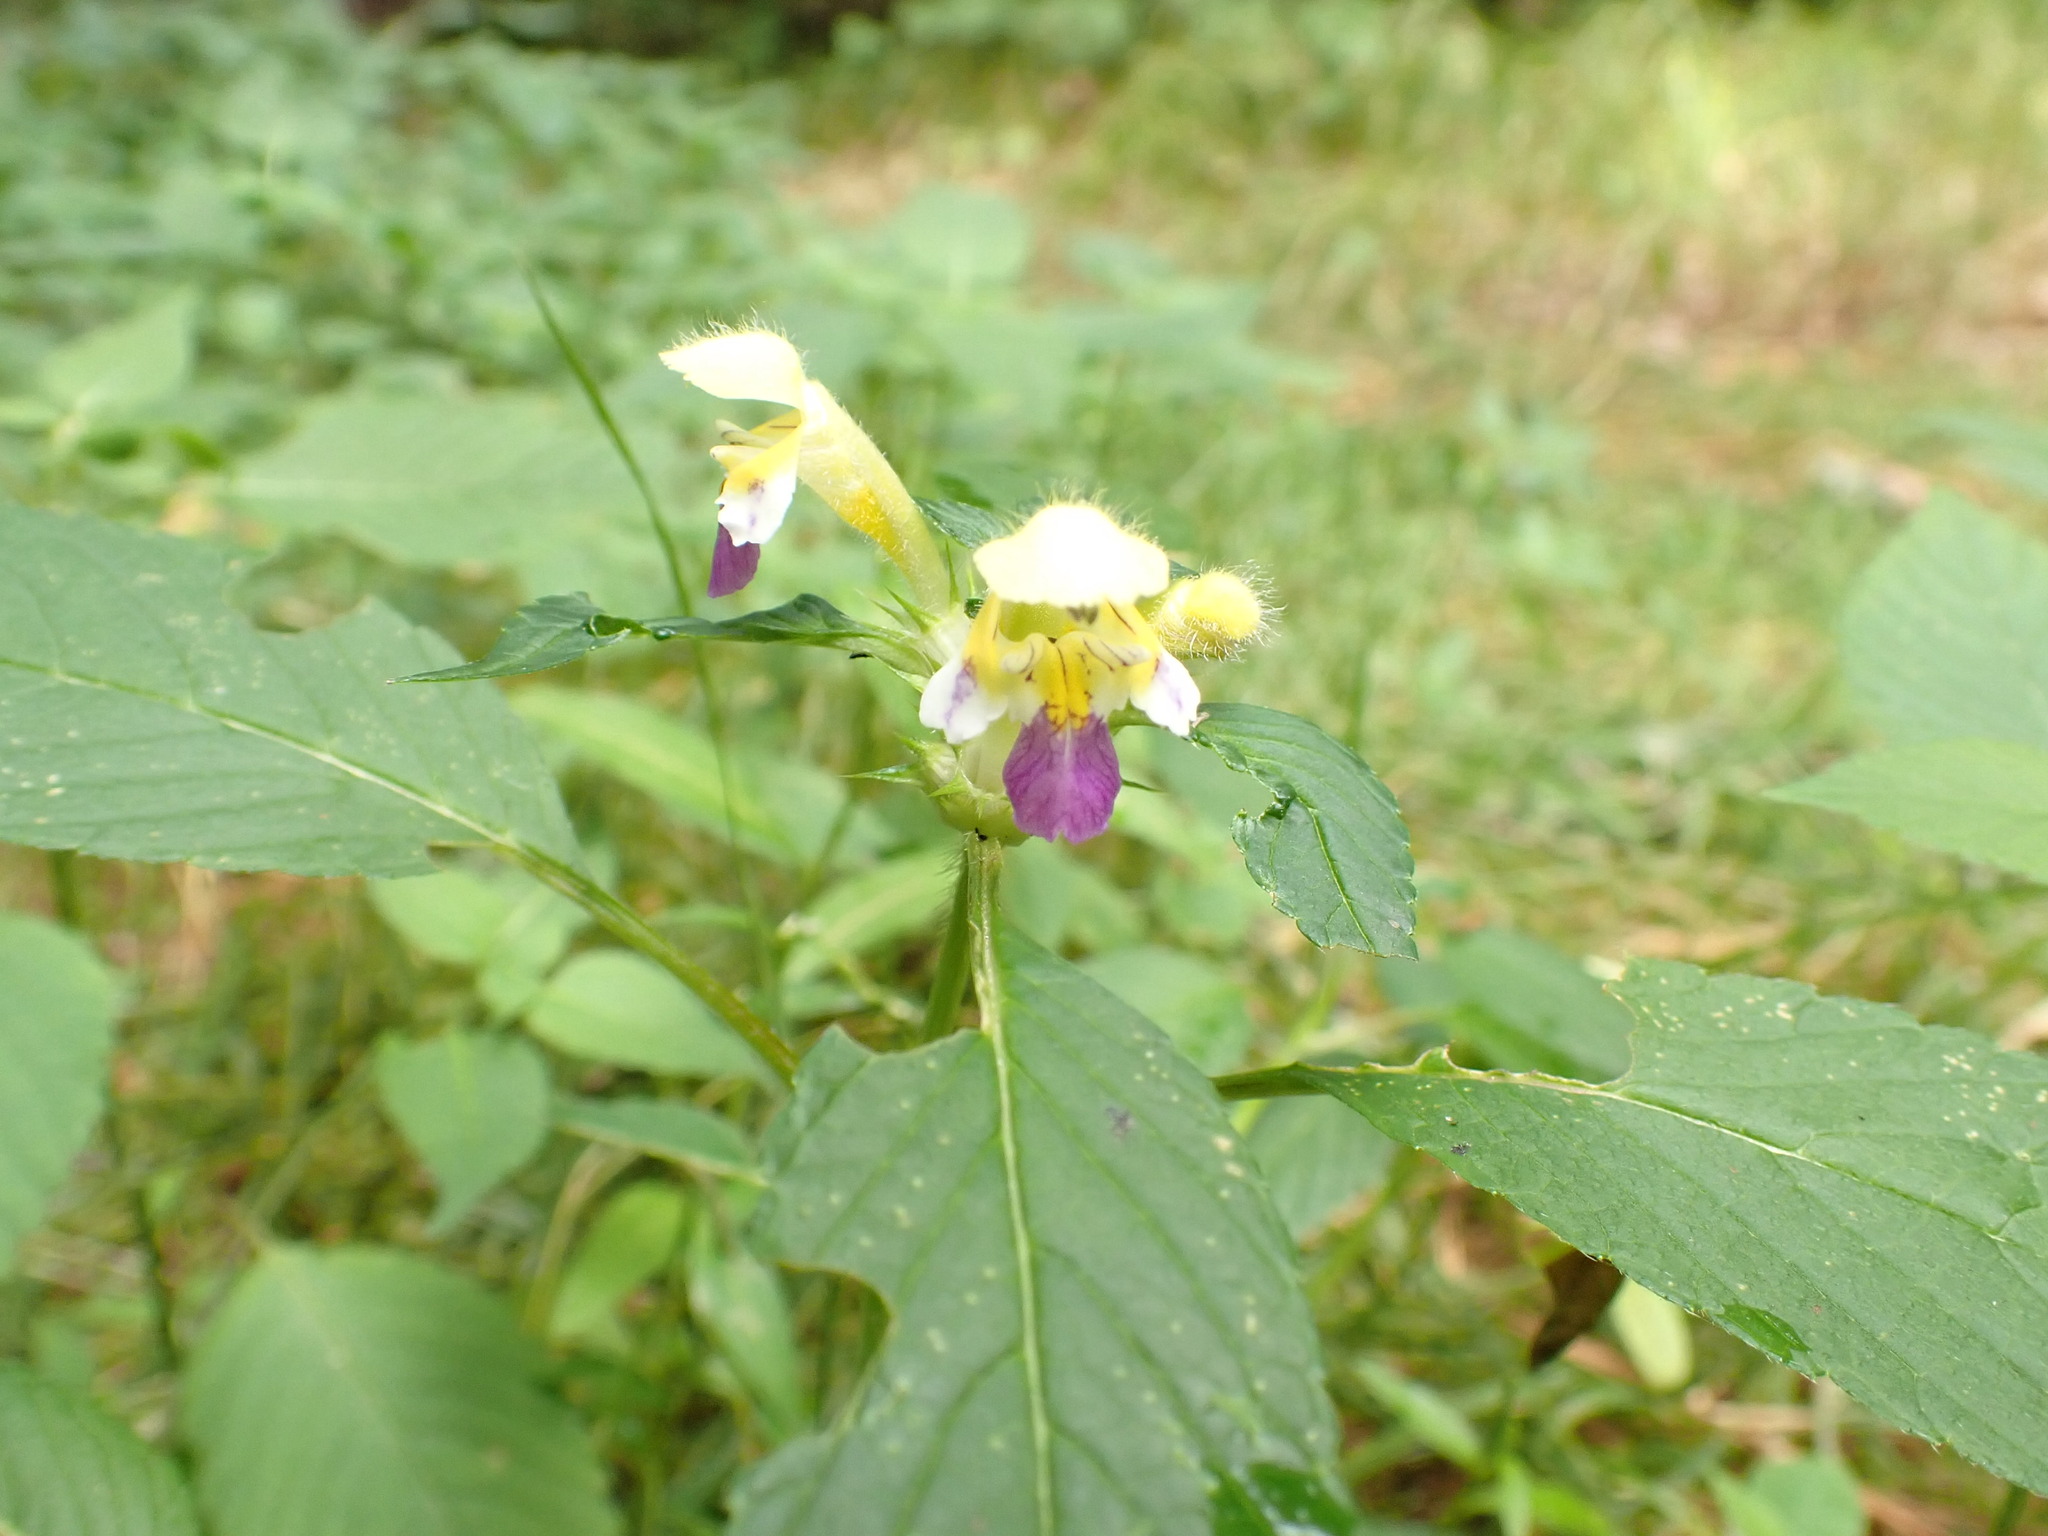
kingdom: Plantae
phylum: Tracheophyta
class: Magnoliopsida
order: Lamiales
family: Lamiaceae
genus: Galeopsis
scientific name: Galeopsis speciosa
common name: Large-flowered hemp-nettle
